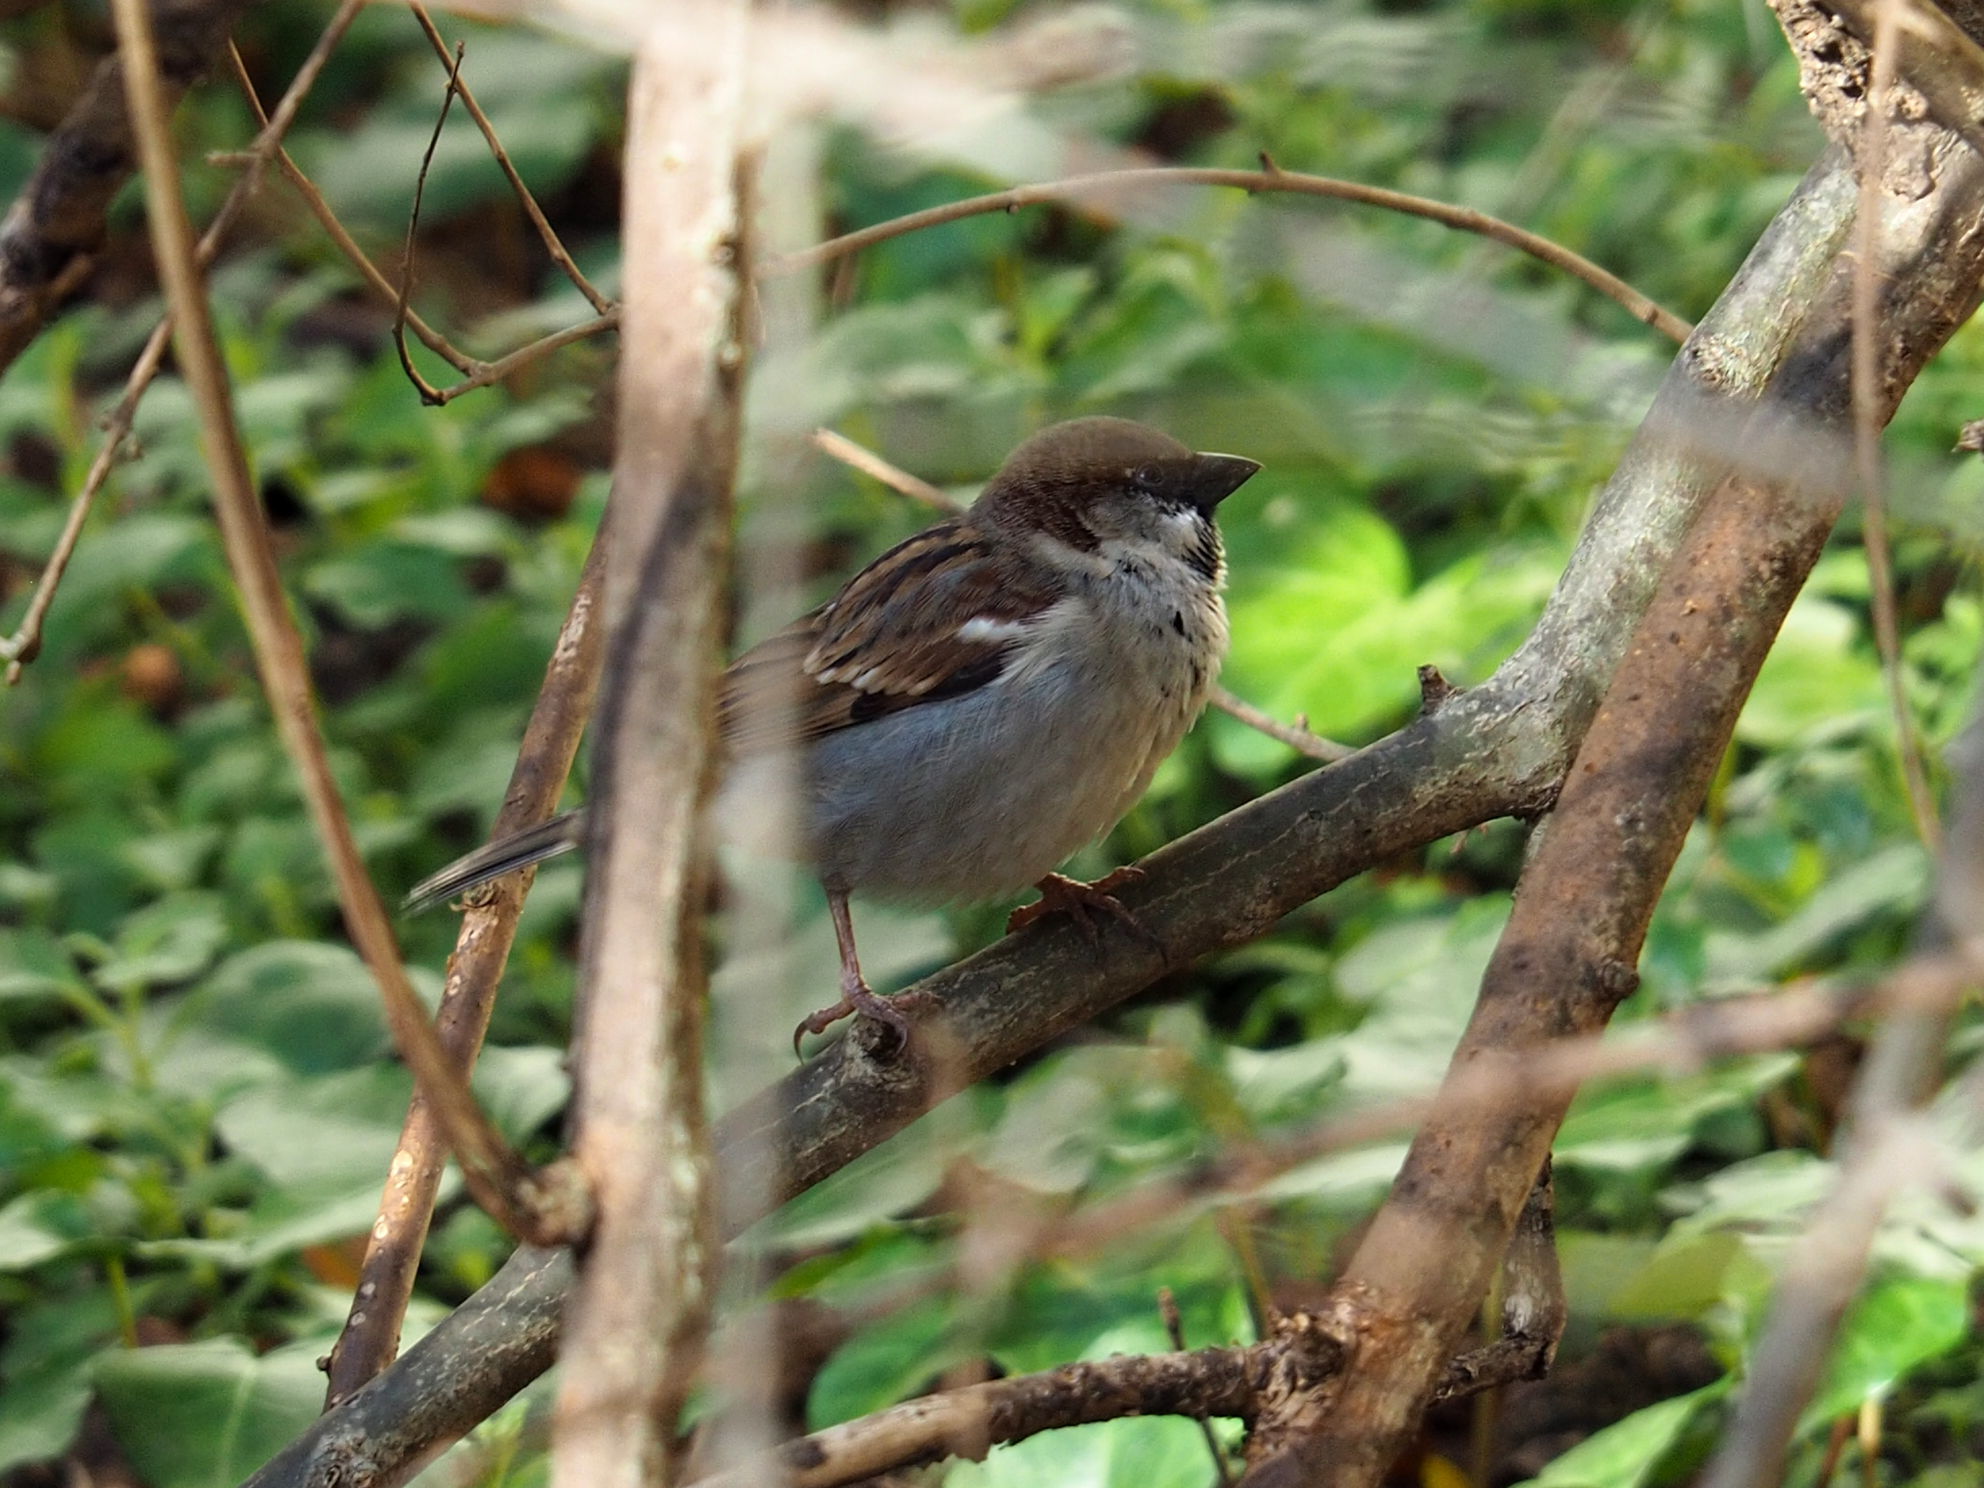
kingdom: Animalia
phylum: Chordata
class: Aves
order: Passeriformes
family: Passeridae
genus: Passer
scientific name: Passer domesticus
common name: House sparrow
